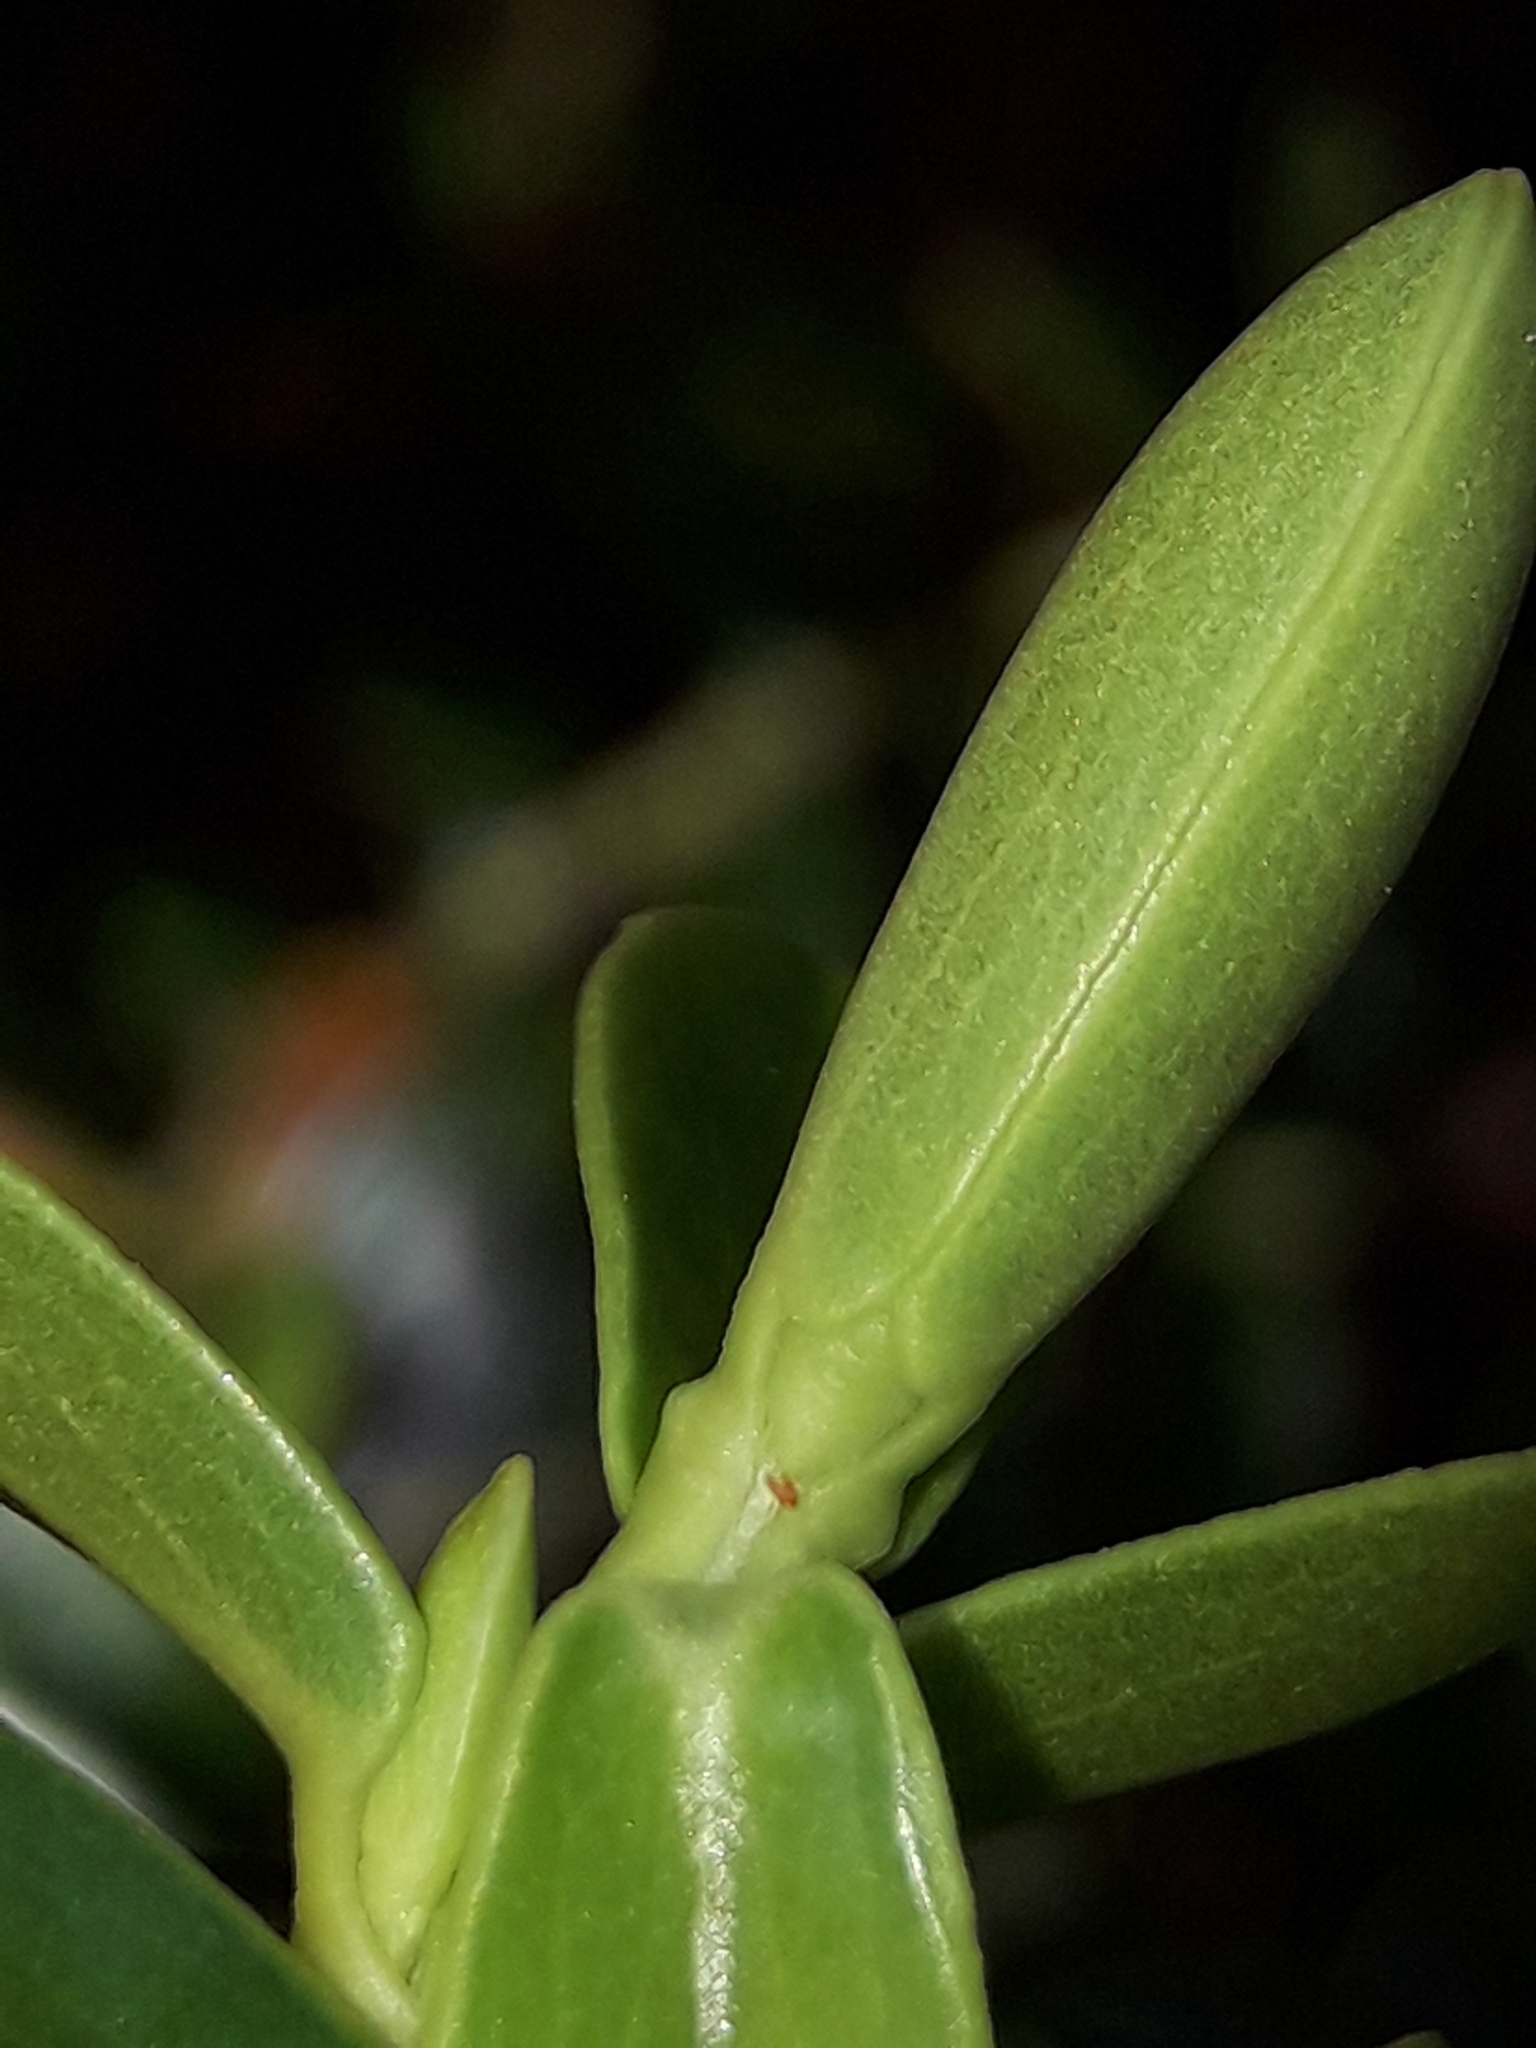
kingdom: Plantae
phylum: Tracheophyta
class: Magnoliopsida
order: Lamiales
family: Plantaginaceae
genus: Veronica
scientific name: Veronica odora
